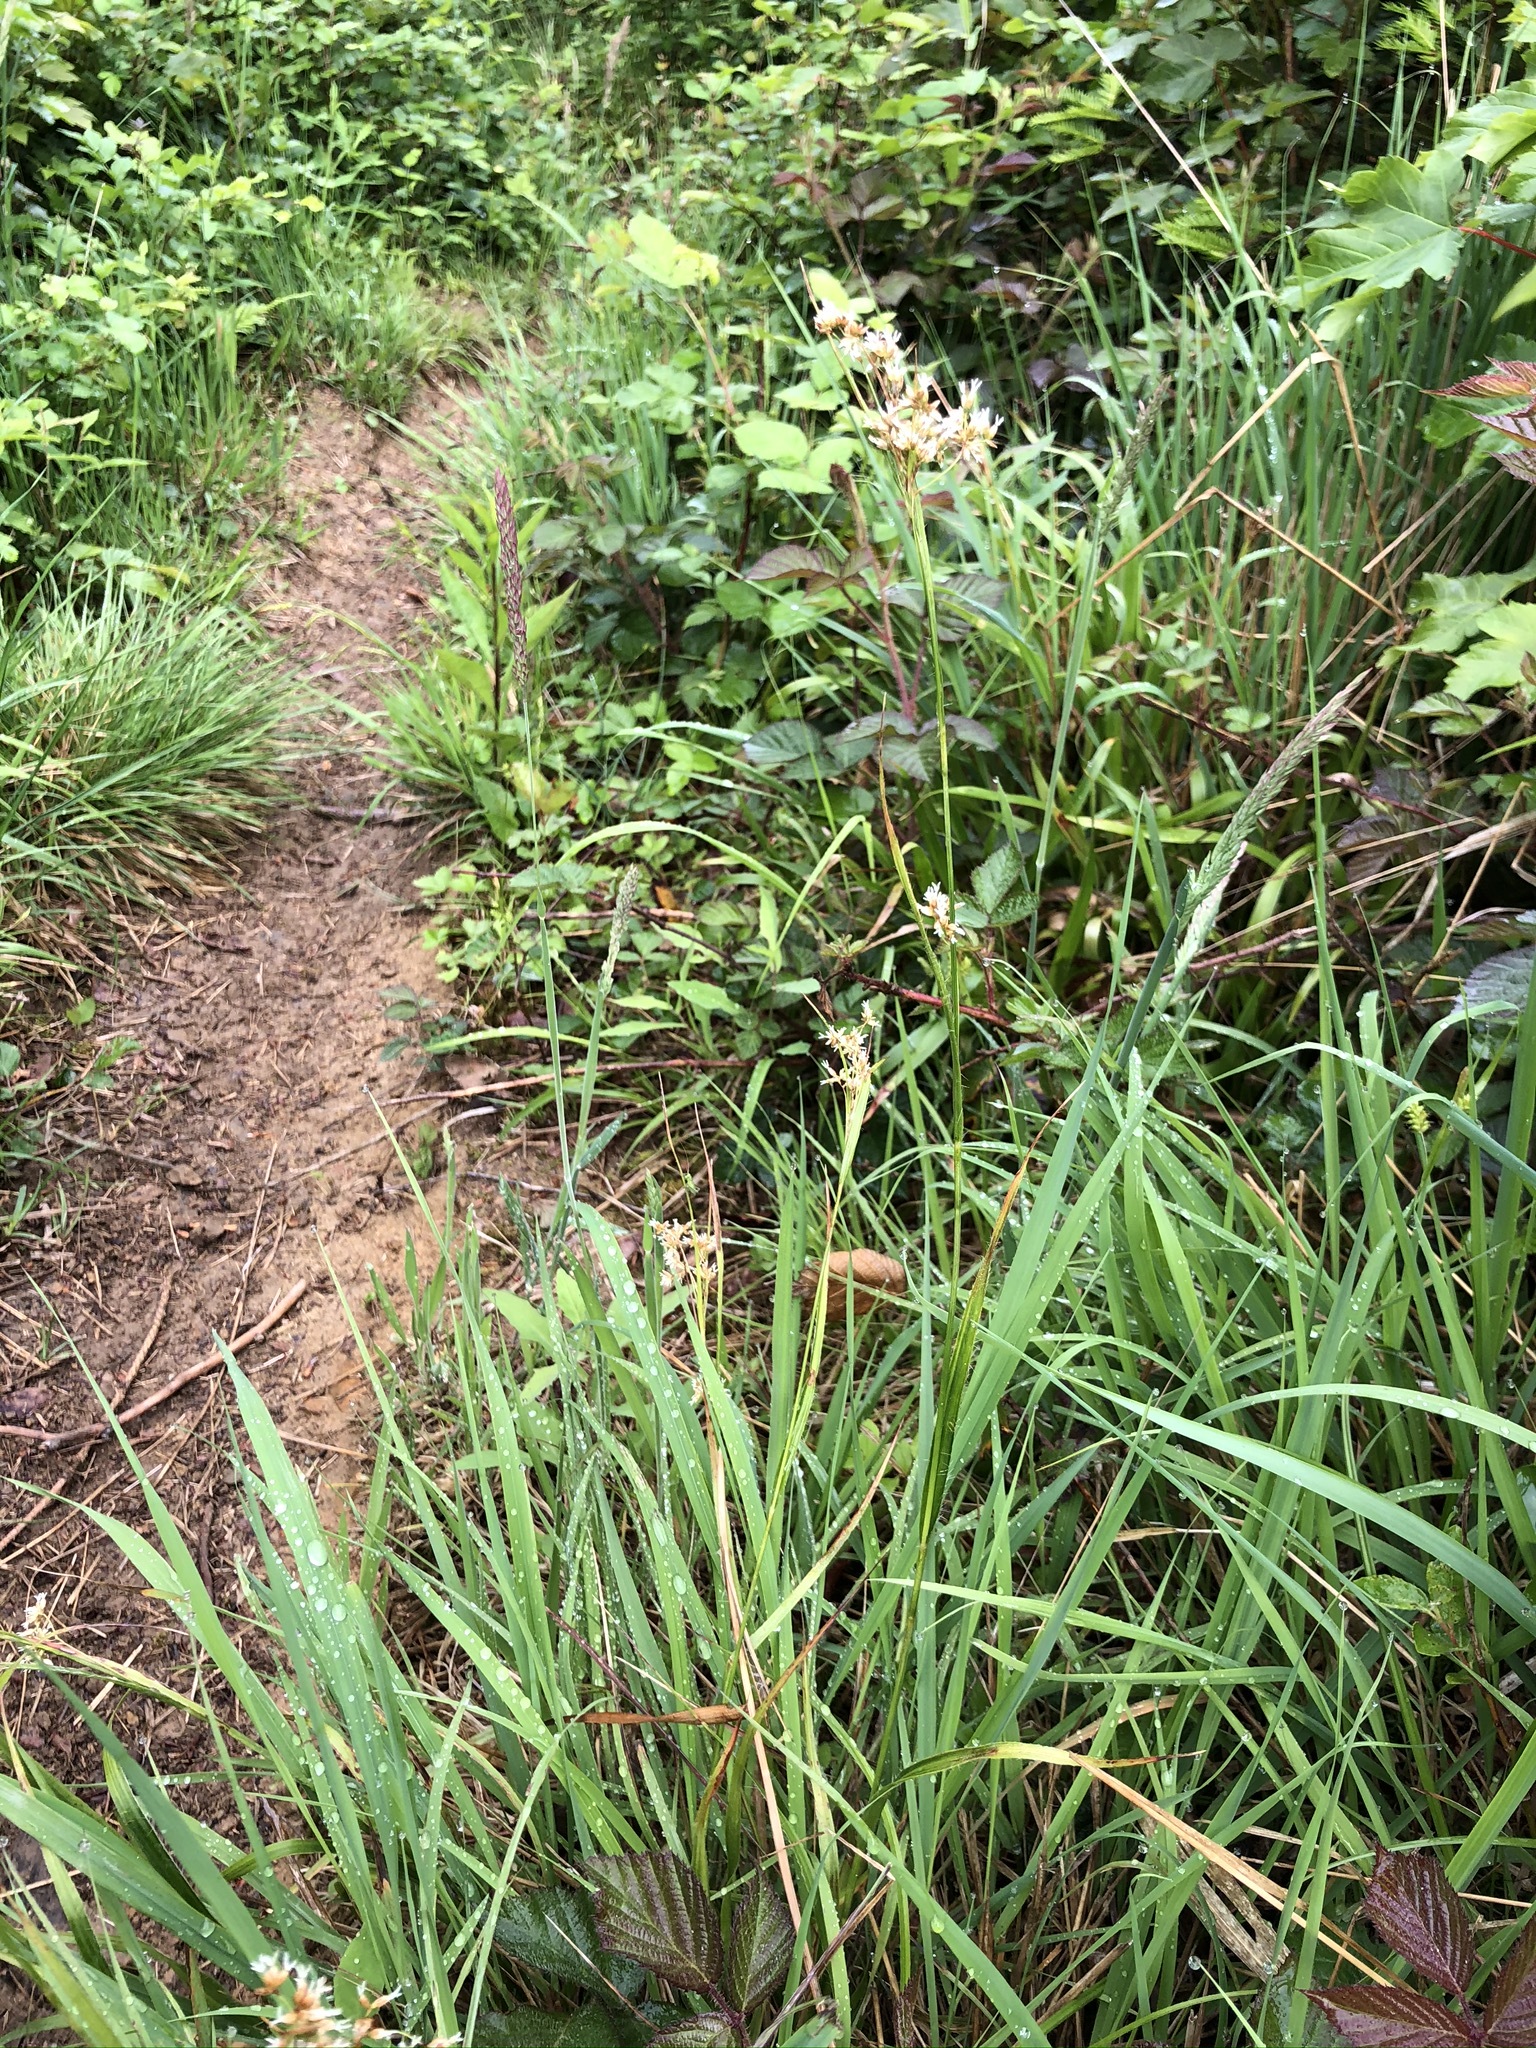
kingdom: Plantae
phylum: Tracheophyta
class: Liliopsida
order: Poales
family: Juncaceae
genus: Luzula
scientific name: Luzula luzuloides
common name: White wood-rush
